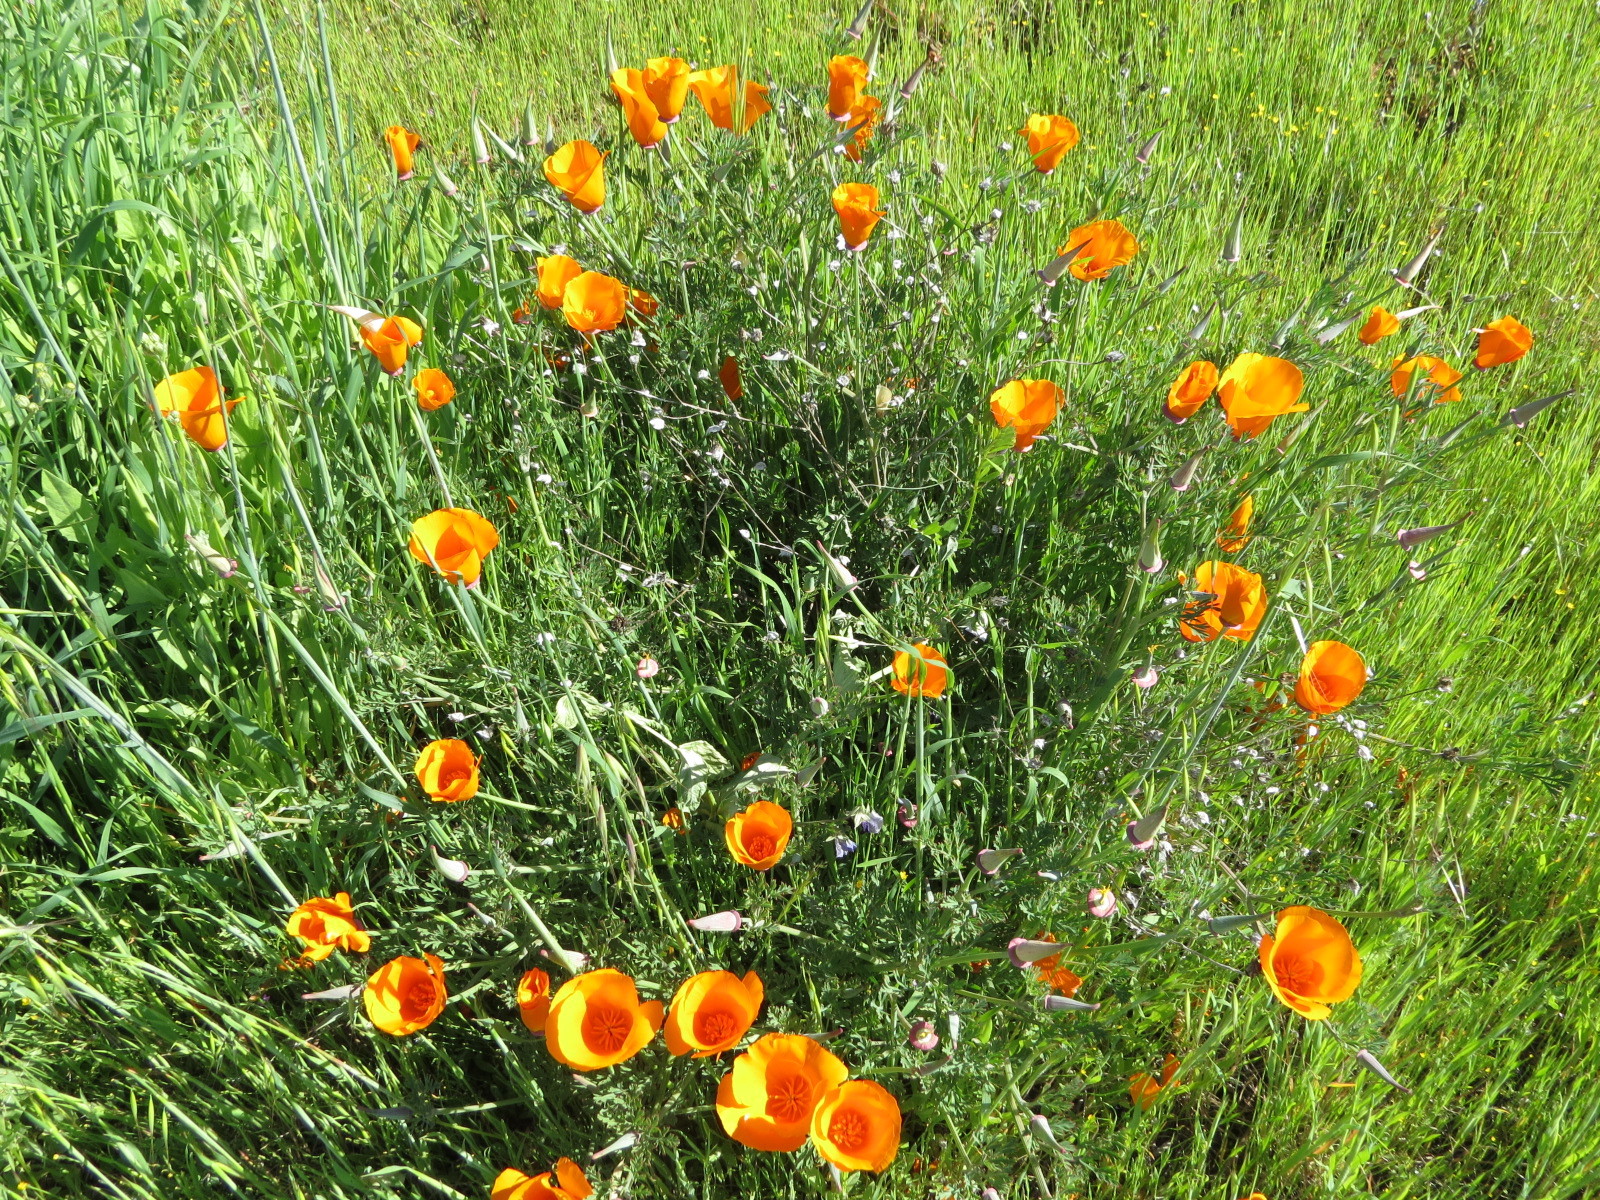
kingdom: Plantae
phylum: Tracheophyta
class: Magnoliopsida
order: Ranunculales
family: Papaveraceae
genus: Eschscholzia
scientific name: Eschscholzia californica
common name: California poppy
